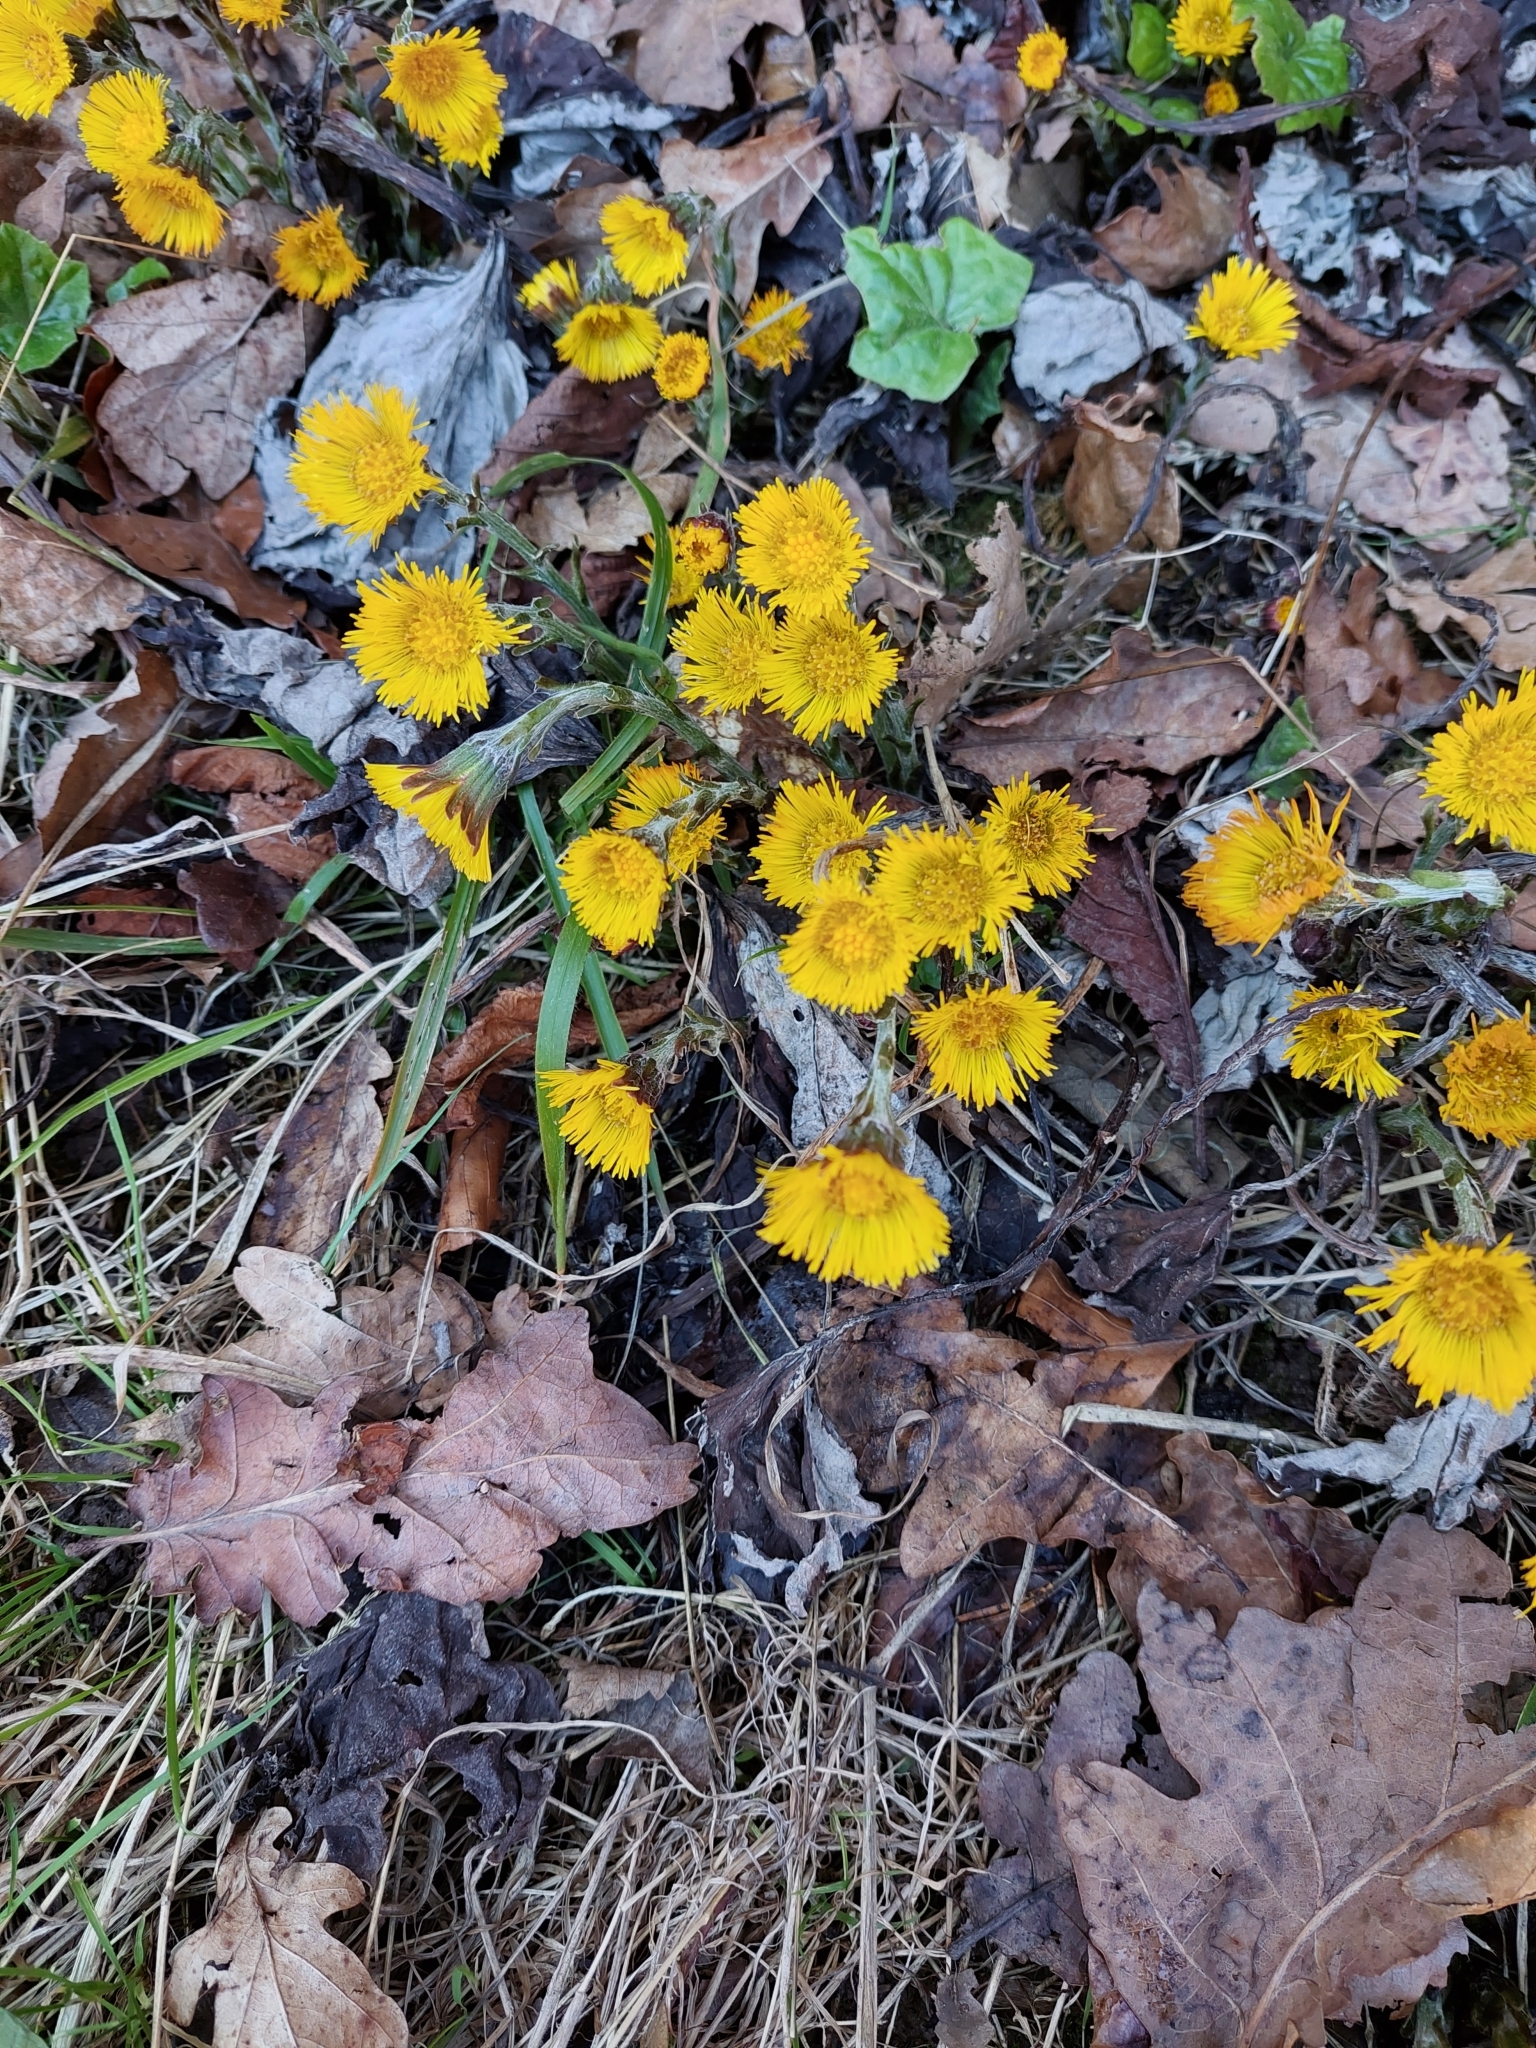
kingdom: Plantae
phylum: Tracheophyta
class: Magnoliopsida
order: Asterales
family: Asteraceae
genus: Tussilago
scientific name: Tussilago farfara
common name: Coltsfoot
